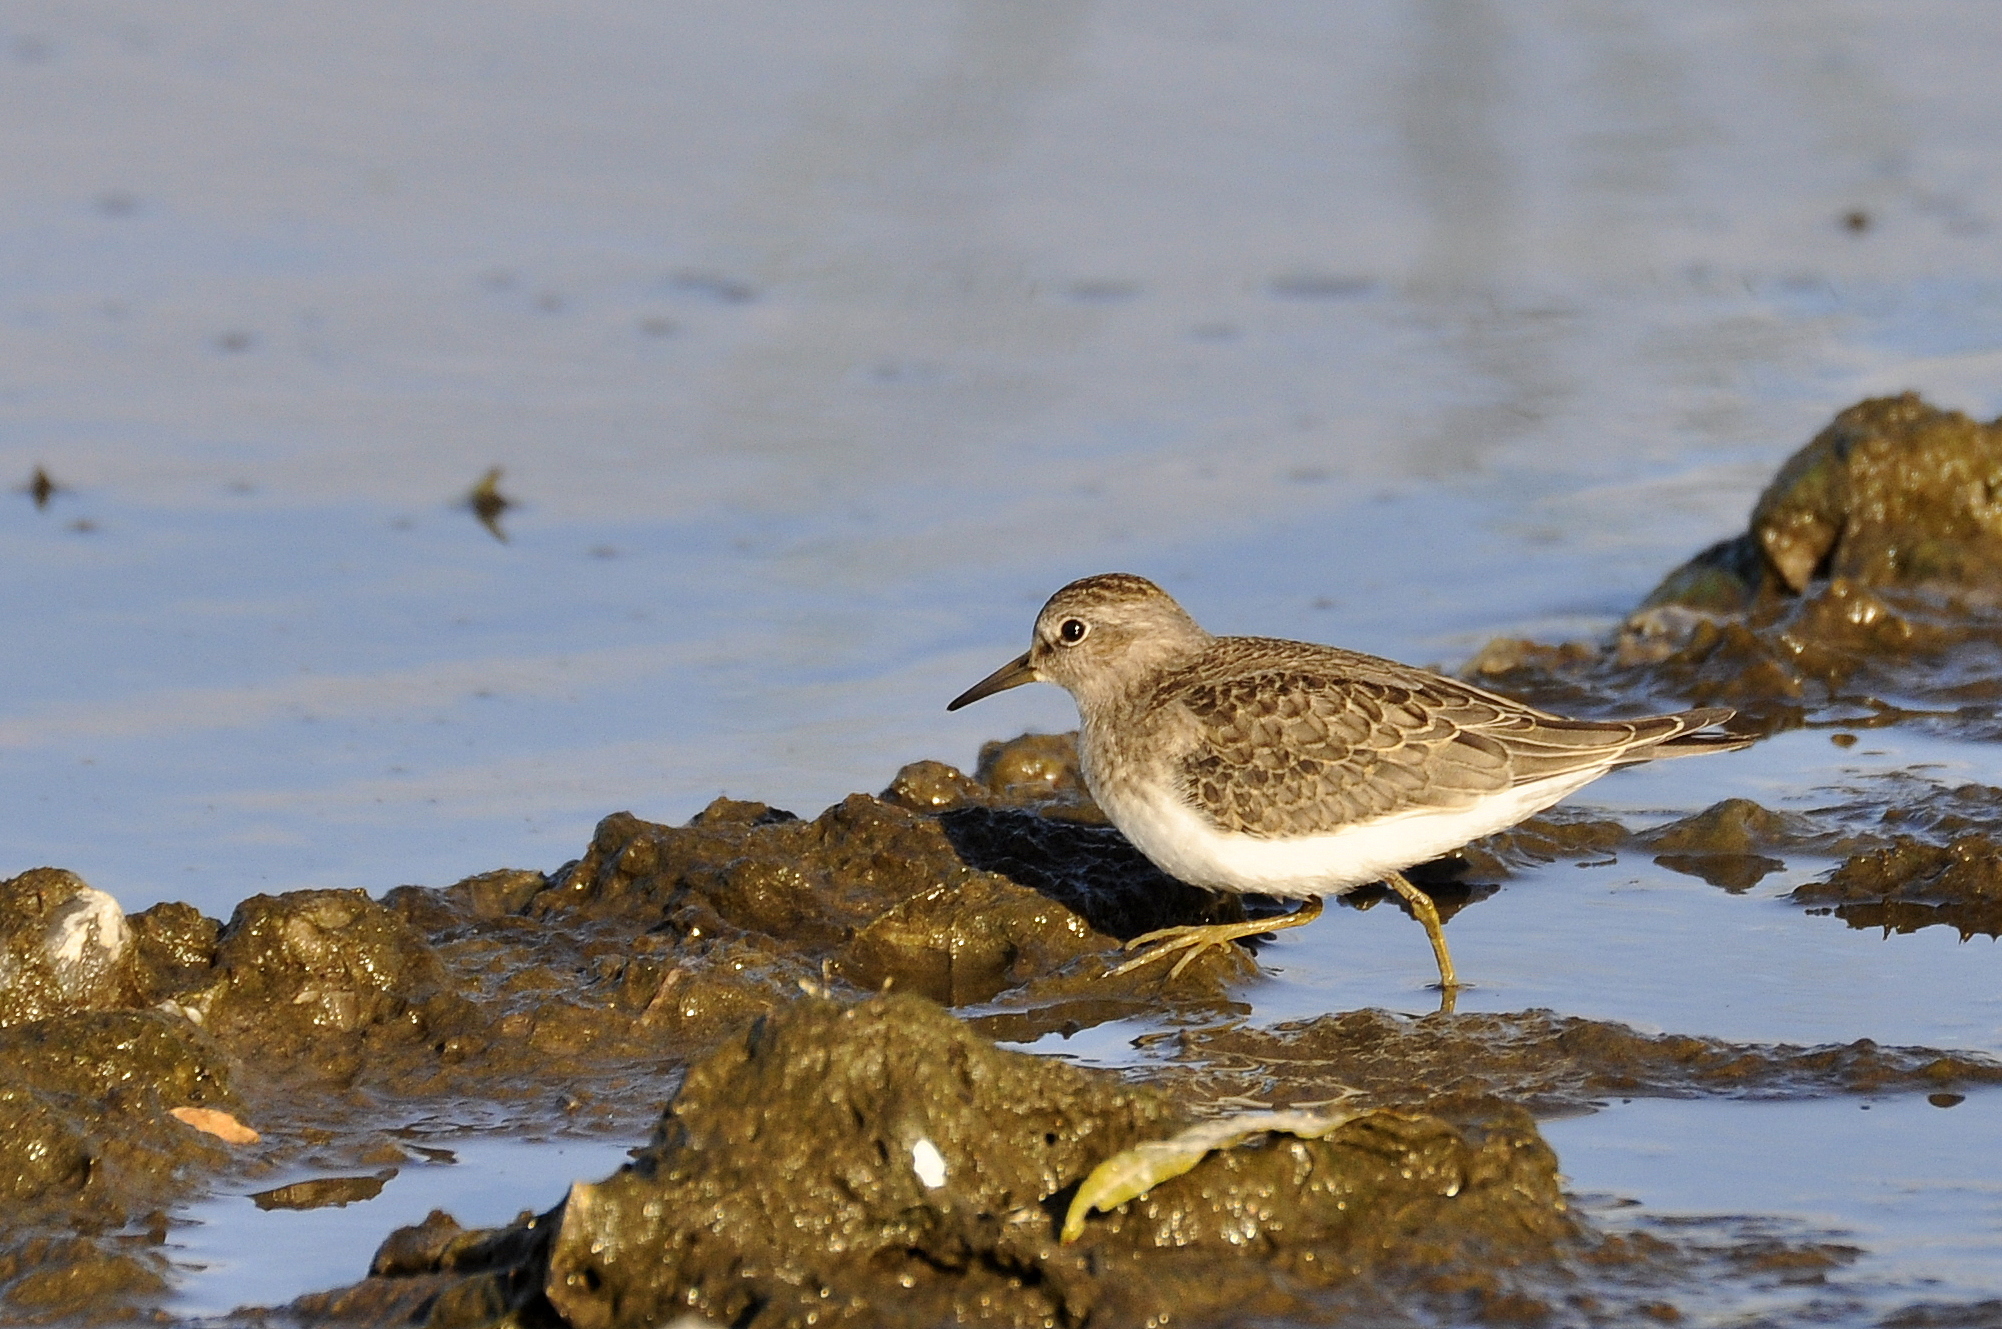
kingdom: Animalia
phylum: Chordata
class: Aves
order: Charadriiformes
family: Scolopacidae
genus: Calidris
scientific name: Calidris temminckii
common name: Temminck's stint
